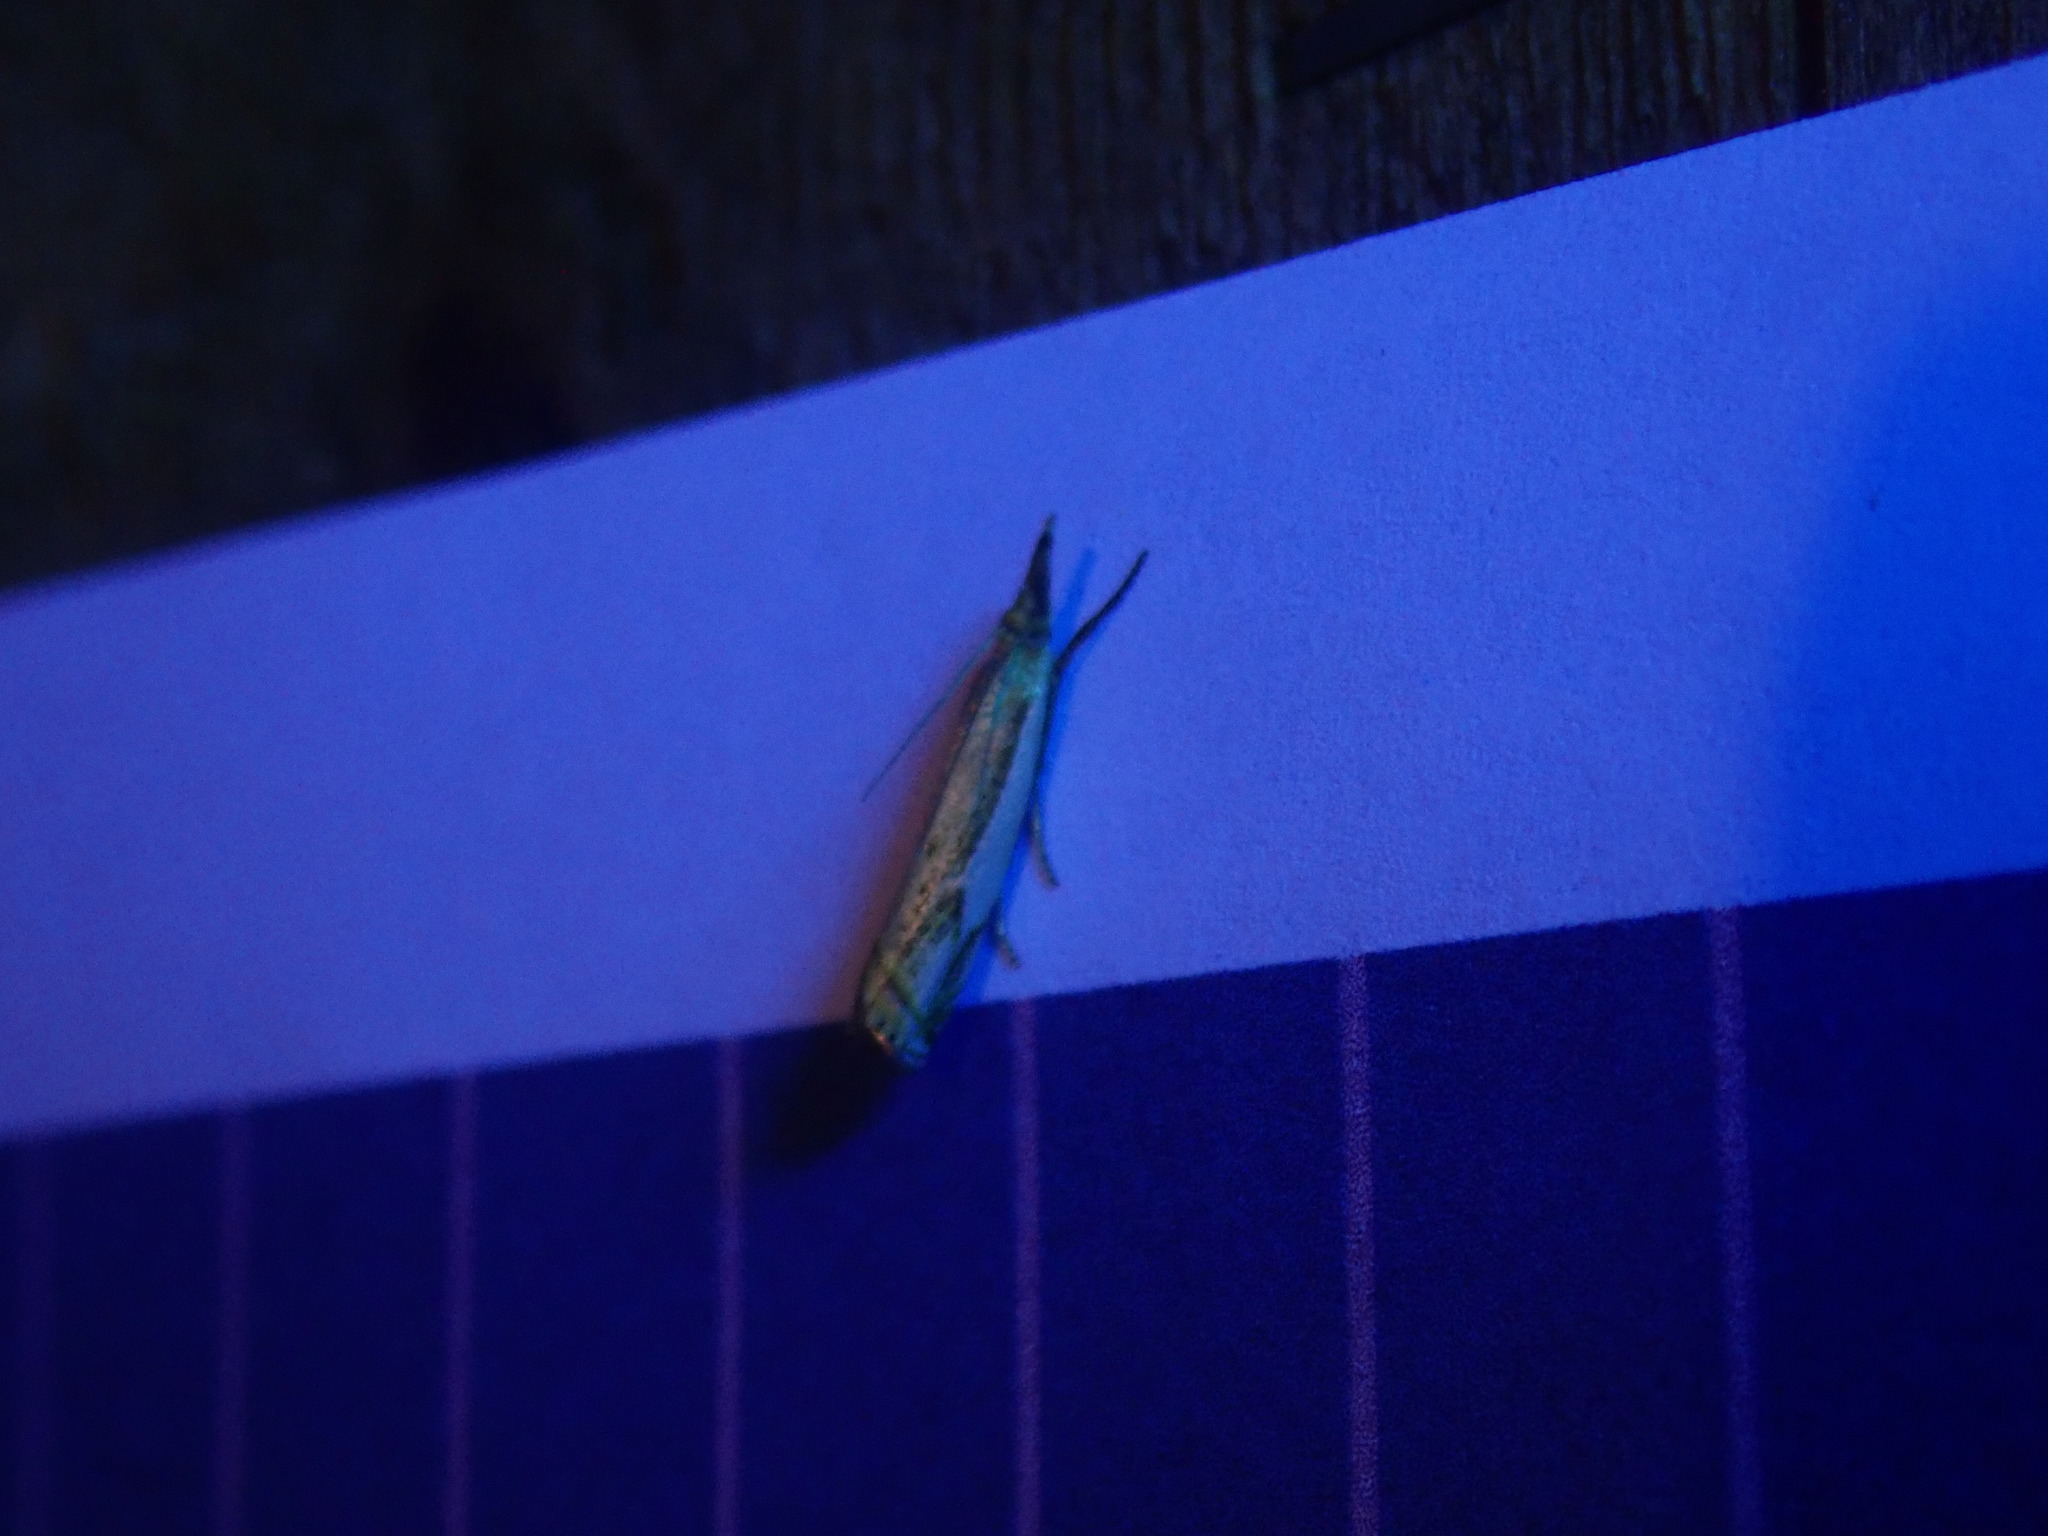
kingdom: Animalia
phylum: Arthropoda
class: Insecta
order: Lepidoptera
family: Crambidae
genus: Crambus
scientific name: Crambus agitatellus
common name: Double-banded grass-veneer
